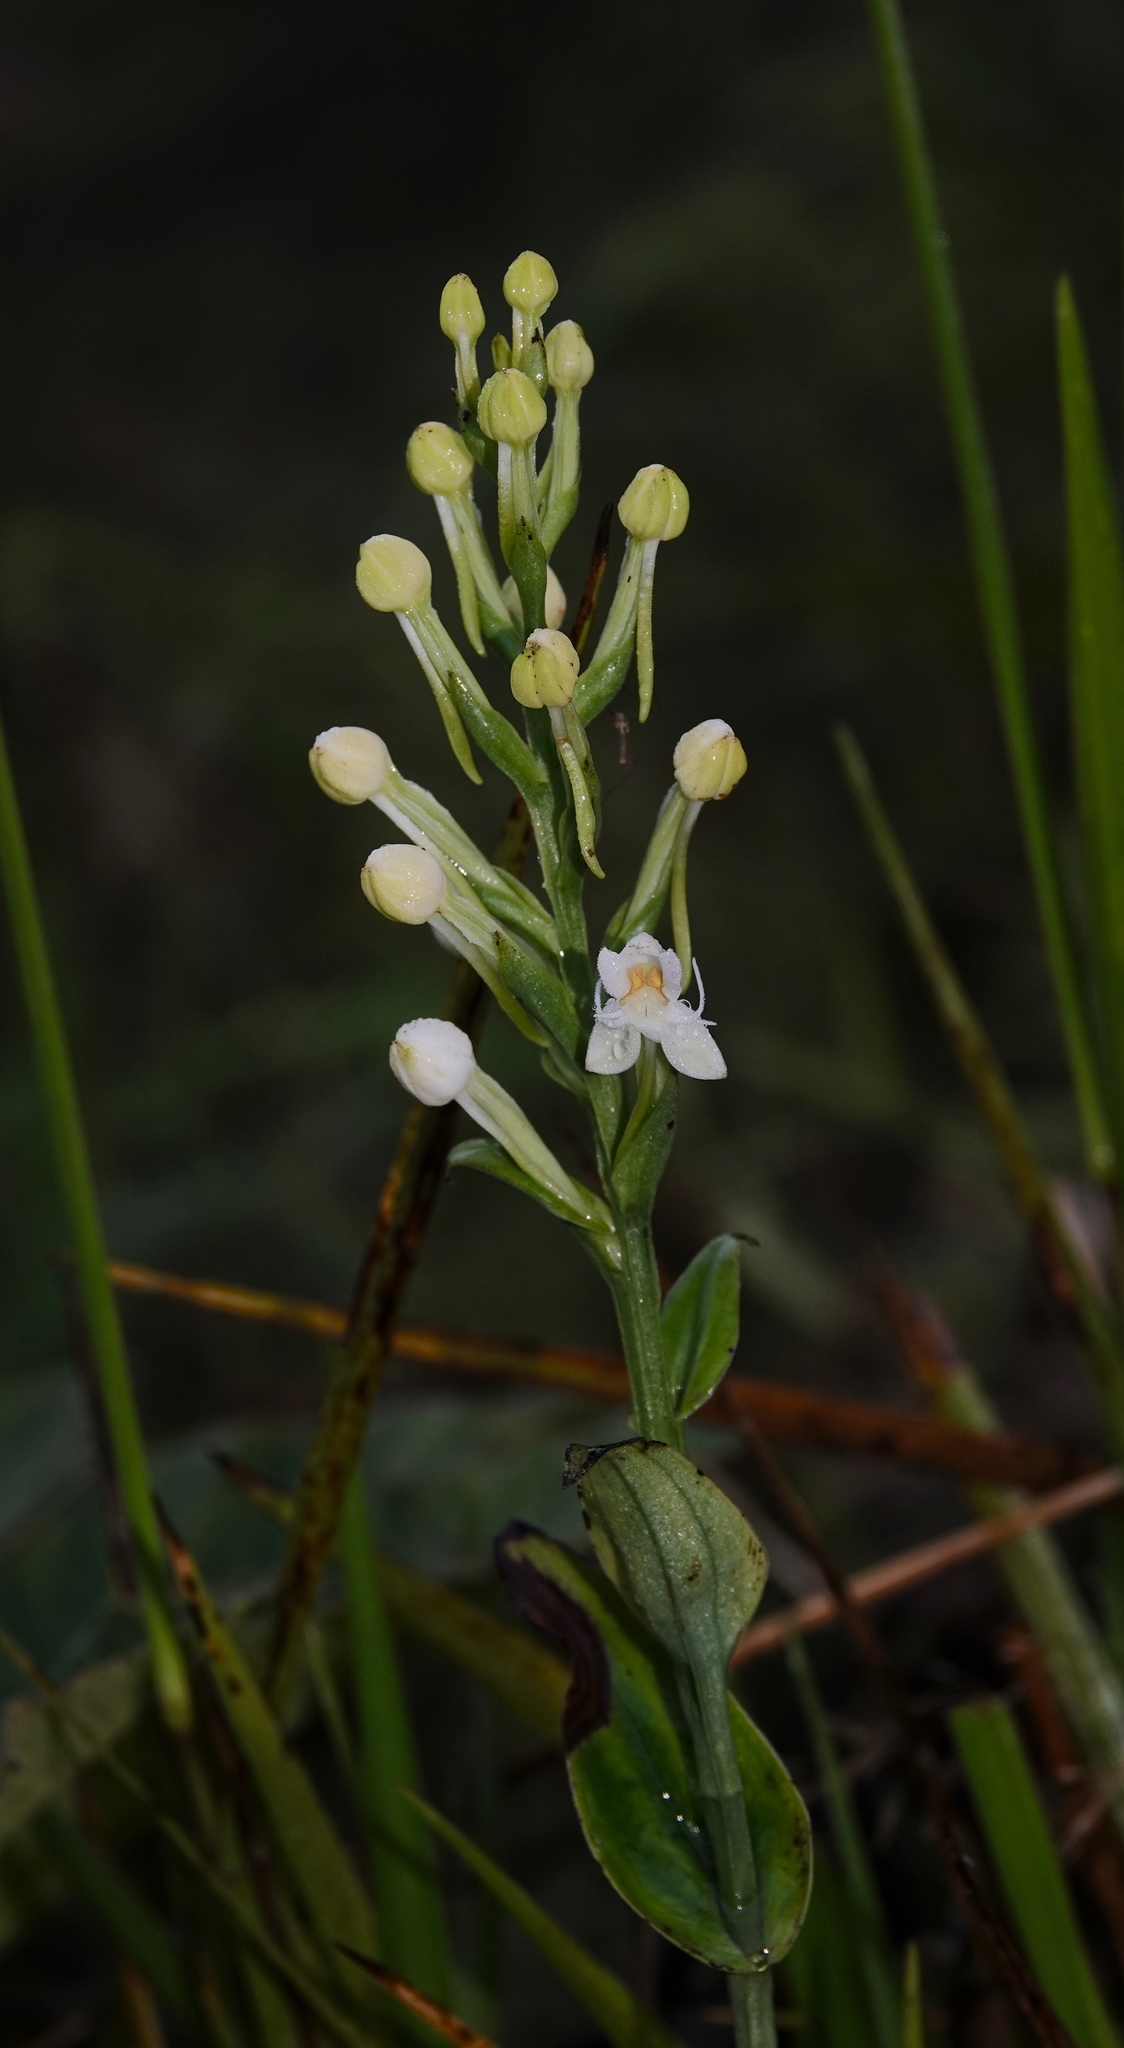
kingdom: Plantae
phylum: Tracheophyta
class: Liliopsida
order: Asparagales
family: Orchidaceae
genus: Habenaria
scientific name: Habenaria monorrhiza
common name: Tropical bog orchid
